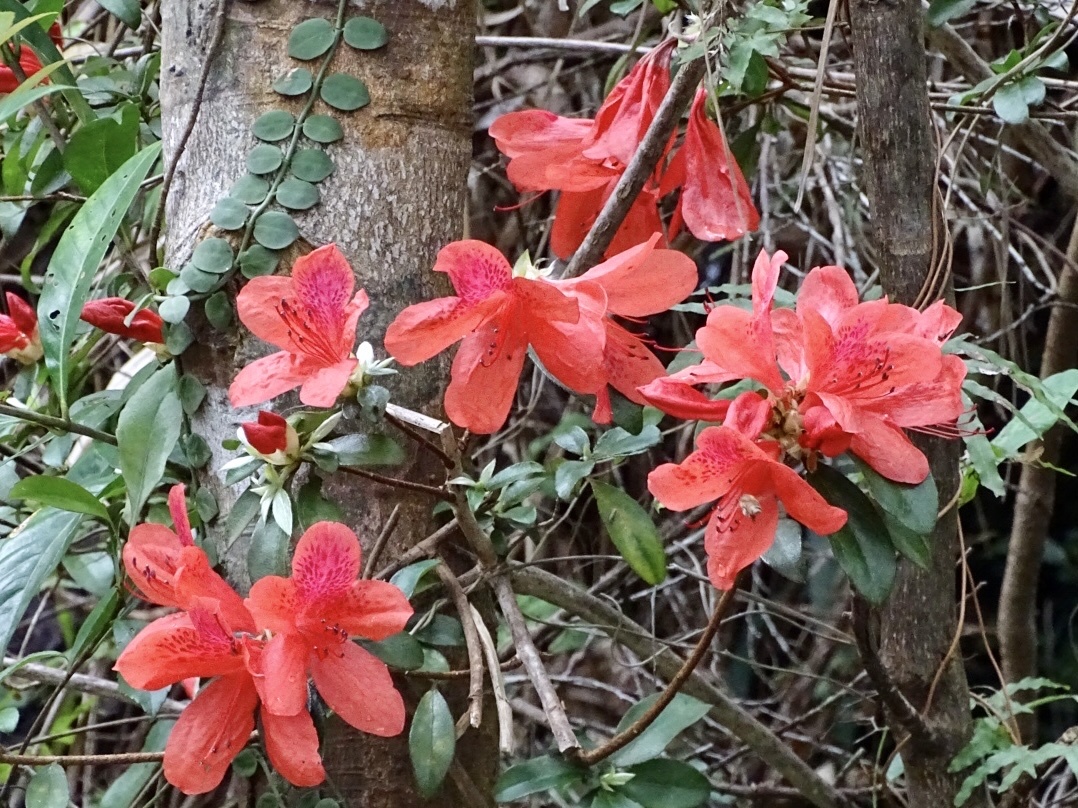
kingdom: Plantae
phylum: Tracheophyta
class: Magnoliopsida
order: Ericales
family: Ericaceae
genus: Rhododendron
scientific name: Rhododendron simsii
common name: Rhododendron
